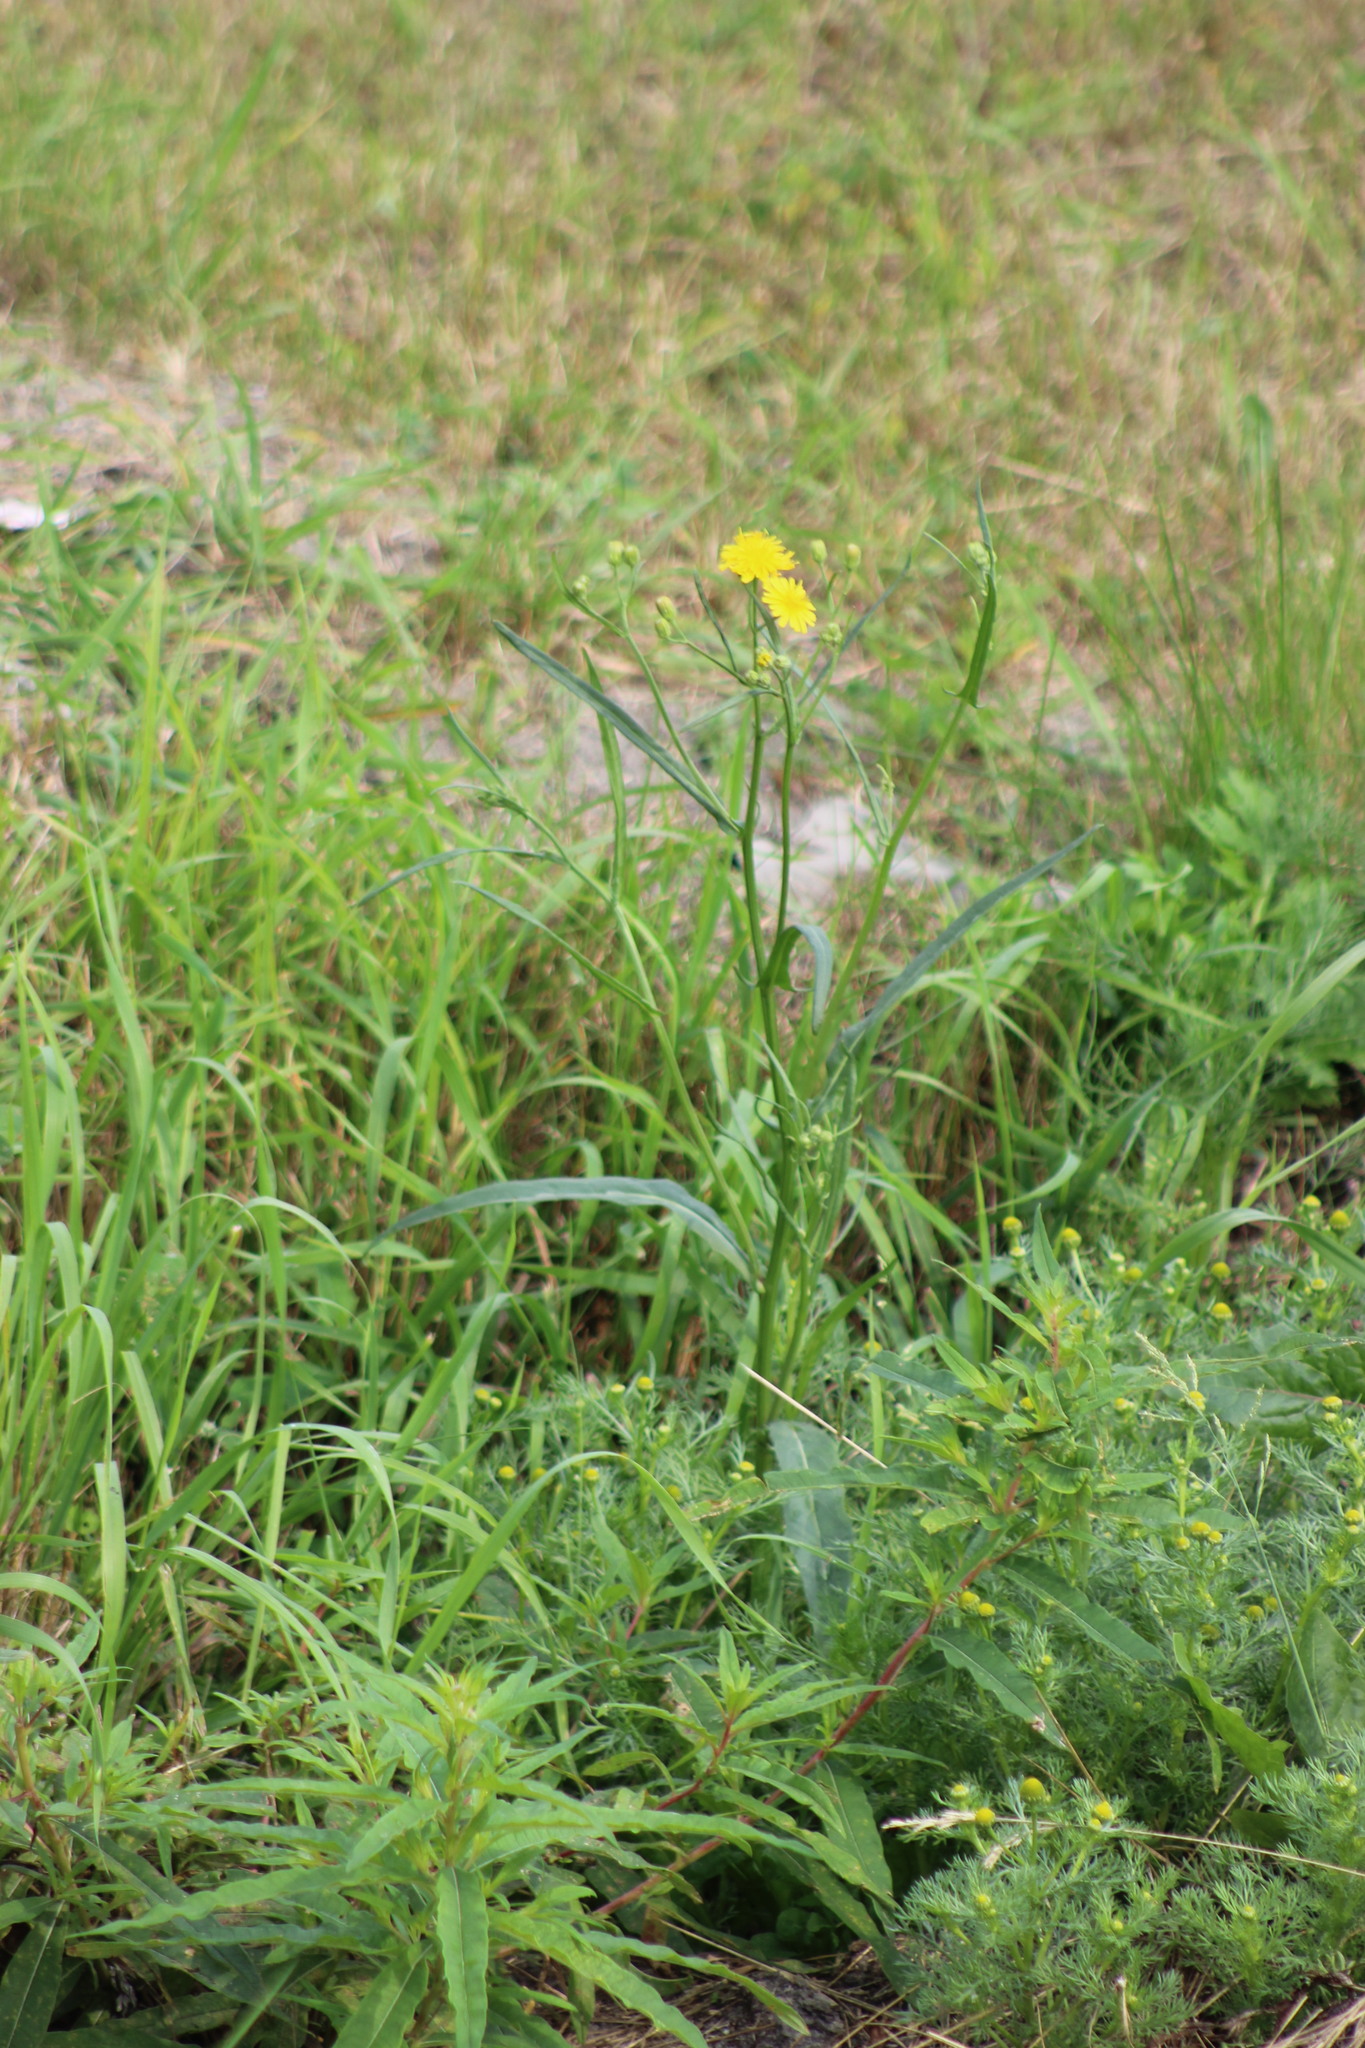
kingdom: Plantae
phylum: Tracheophyta
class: Magnoliopsida
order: Asterales
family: Asteraceae
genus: Sonchus
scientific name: Sonchus arvensis
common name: Perennial sow-thistle
